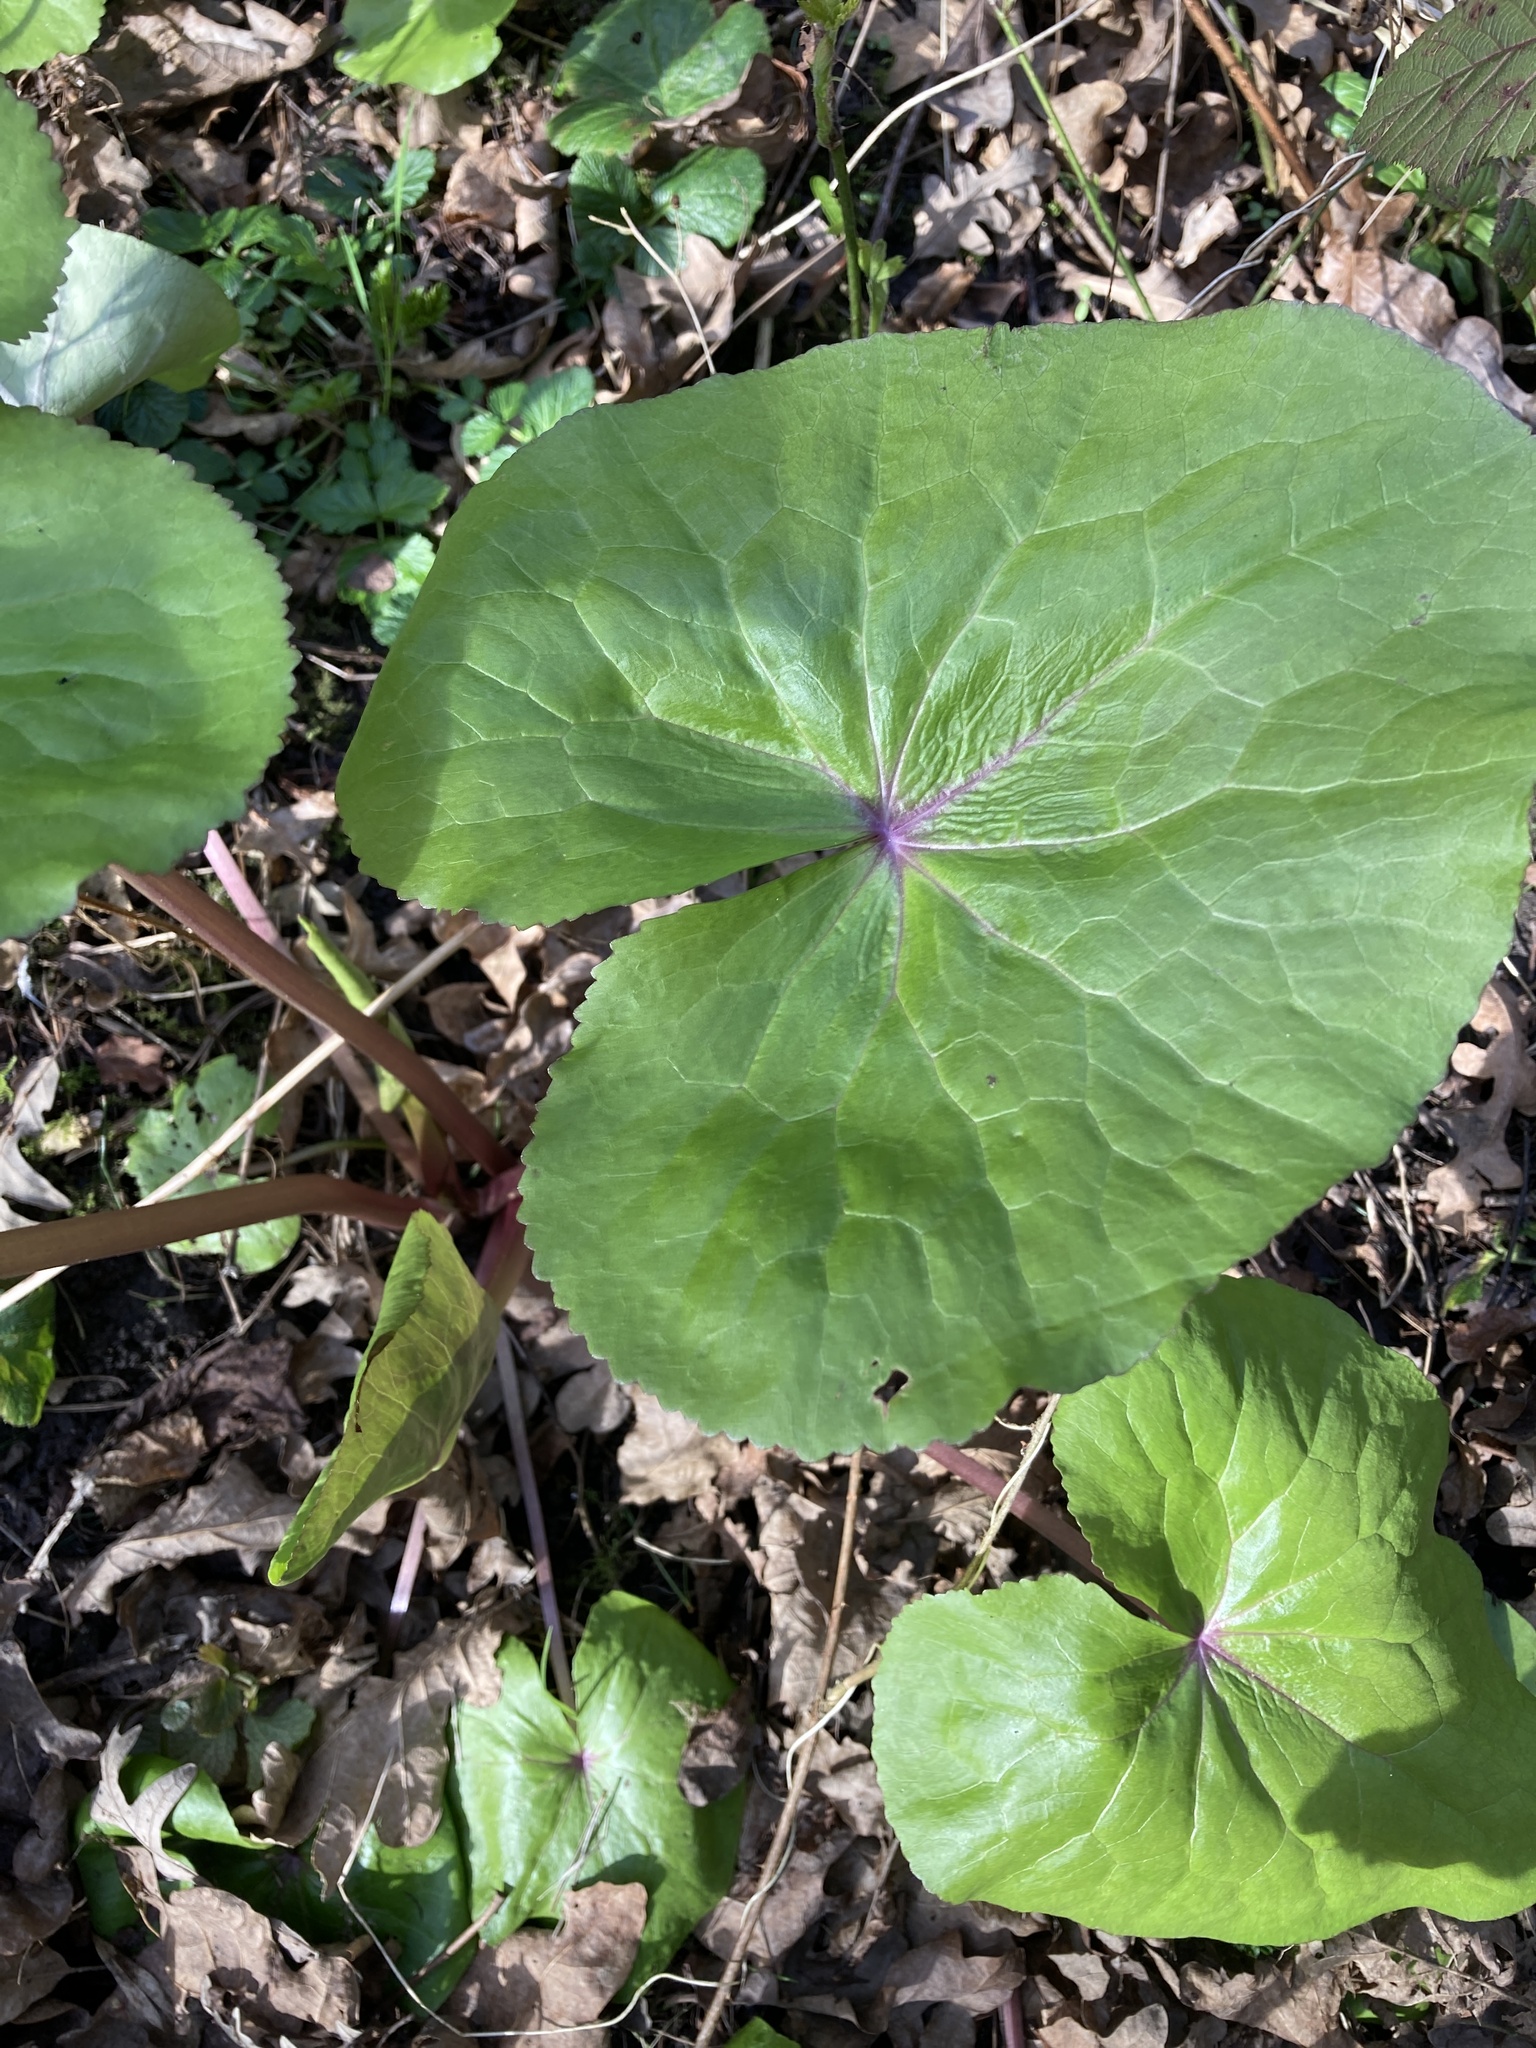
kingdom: Plantae
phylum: Tracheophyta
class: Magnoliopsida
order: Ranunculales
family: Ranunculaceae
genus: Caltha
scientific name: Caltha palustris
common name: Marsh marigold
